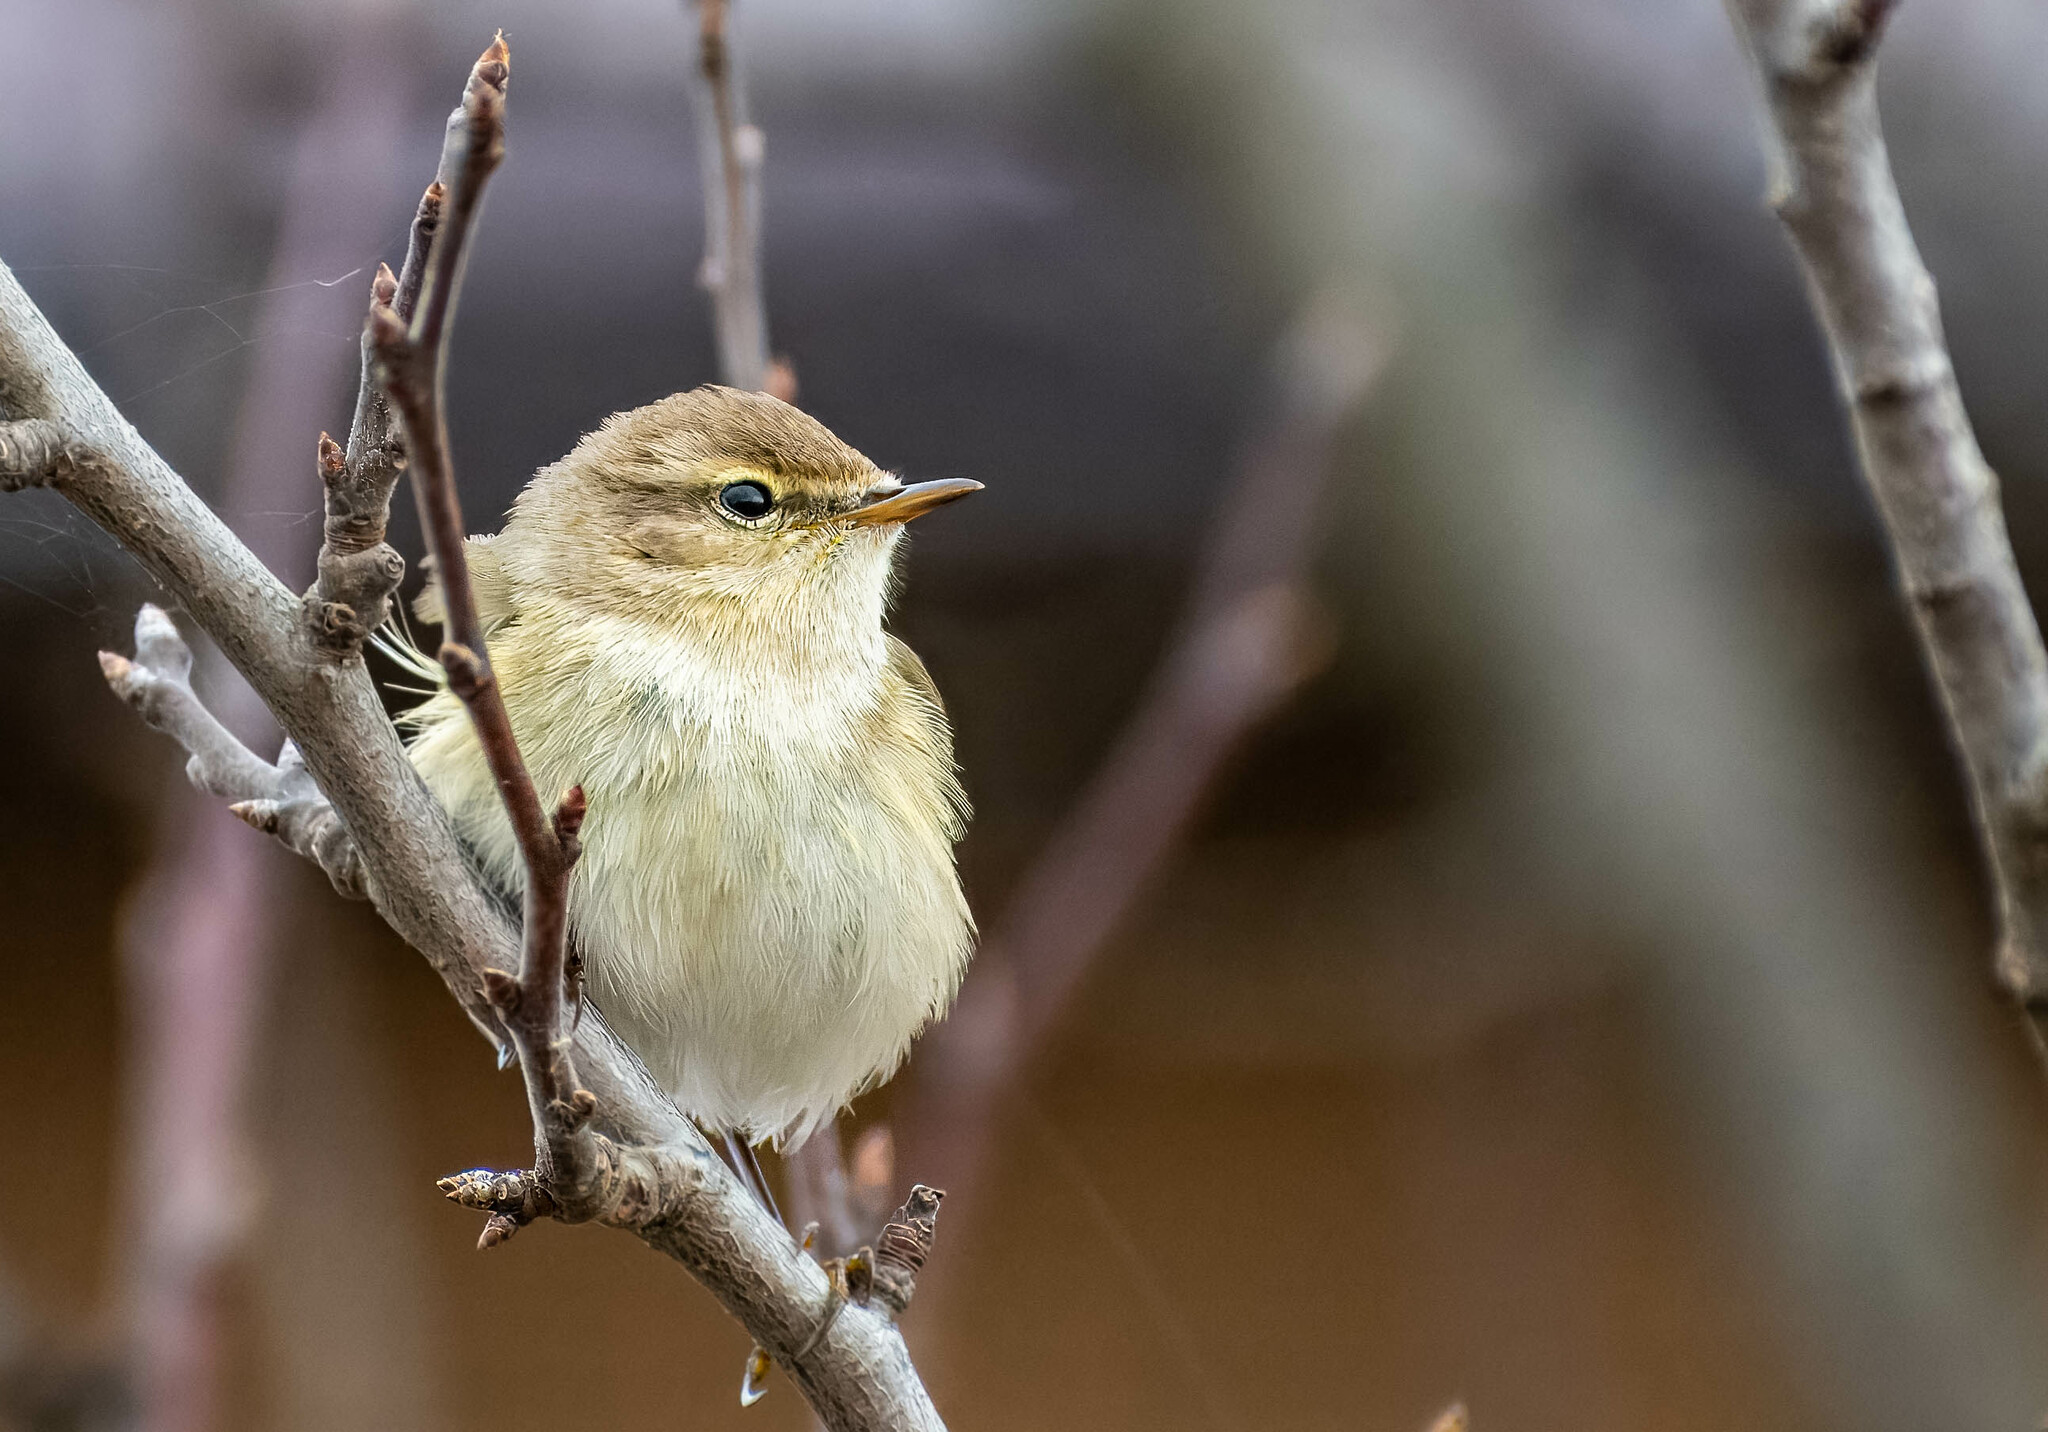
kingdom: Animalia
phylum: Chordata
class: Aves
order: Passeriformes
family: Phylloscopidae
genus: Phylloscopus
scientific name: Phylloscopus collybita
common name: Common chiffchaff
